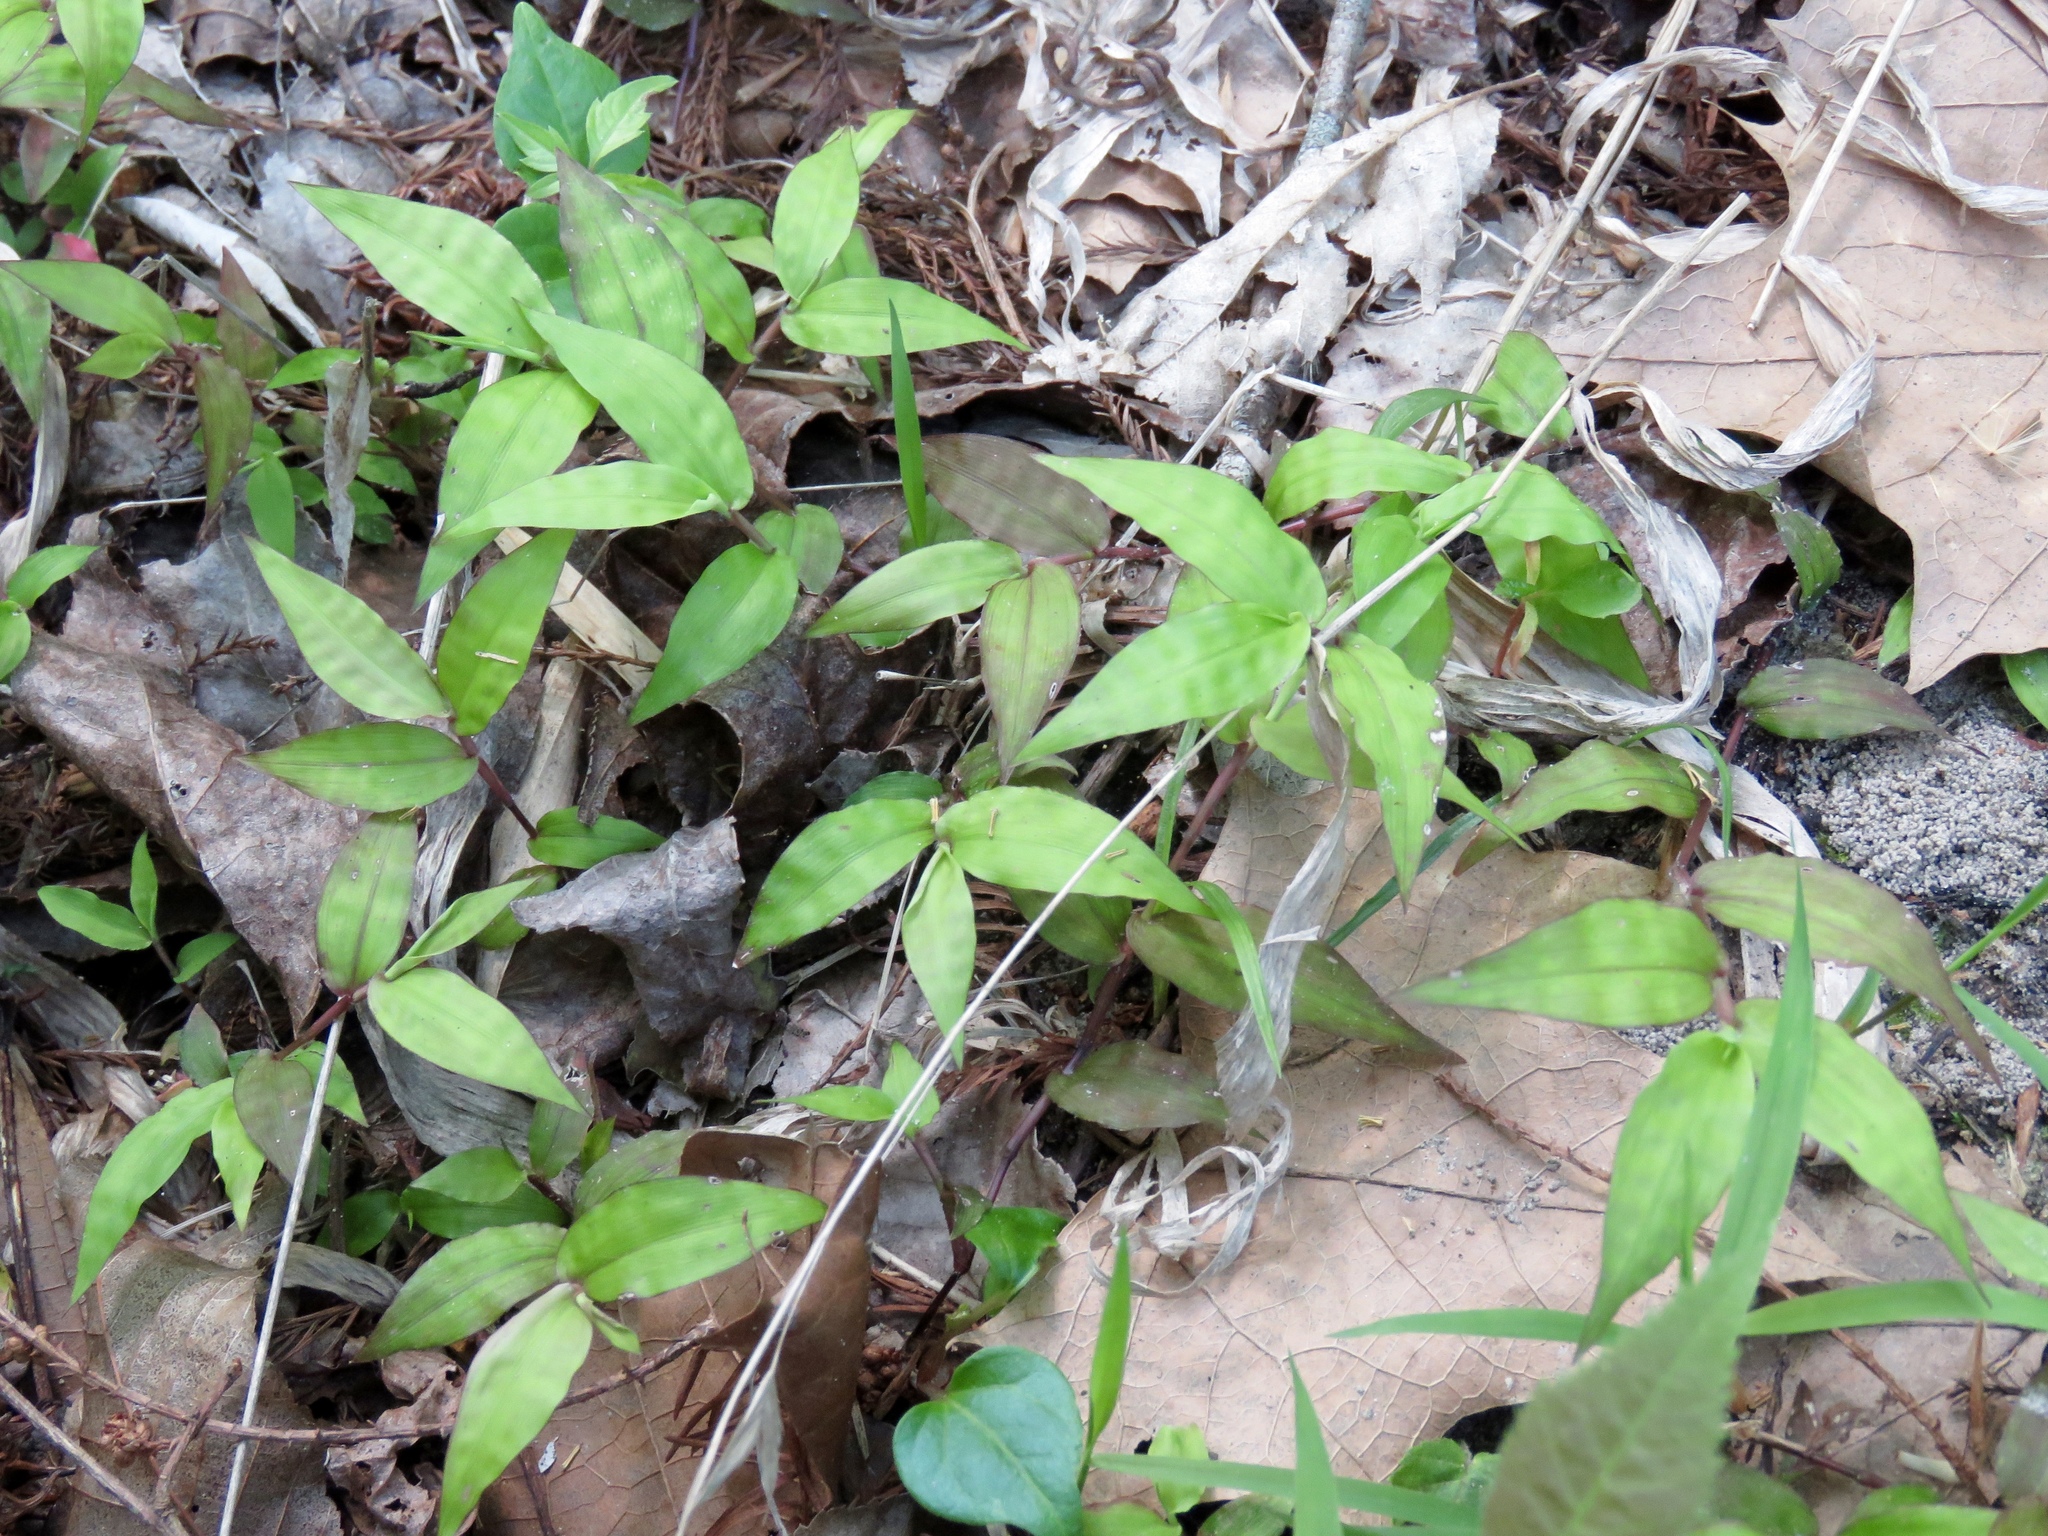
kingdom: Plantae
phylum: Tracheophyta
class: Liliopsida
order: Poales
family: Poaceae
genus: Oplismenus
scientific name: Oplismenus hirtellus
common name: Basketgrass
